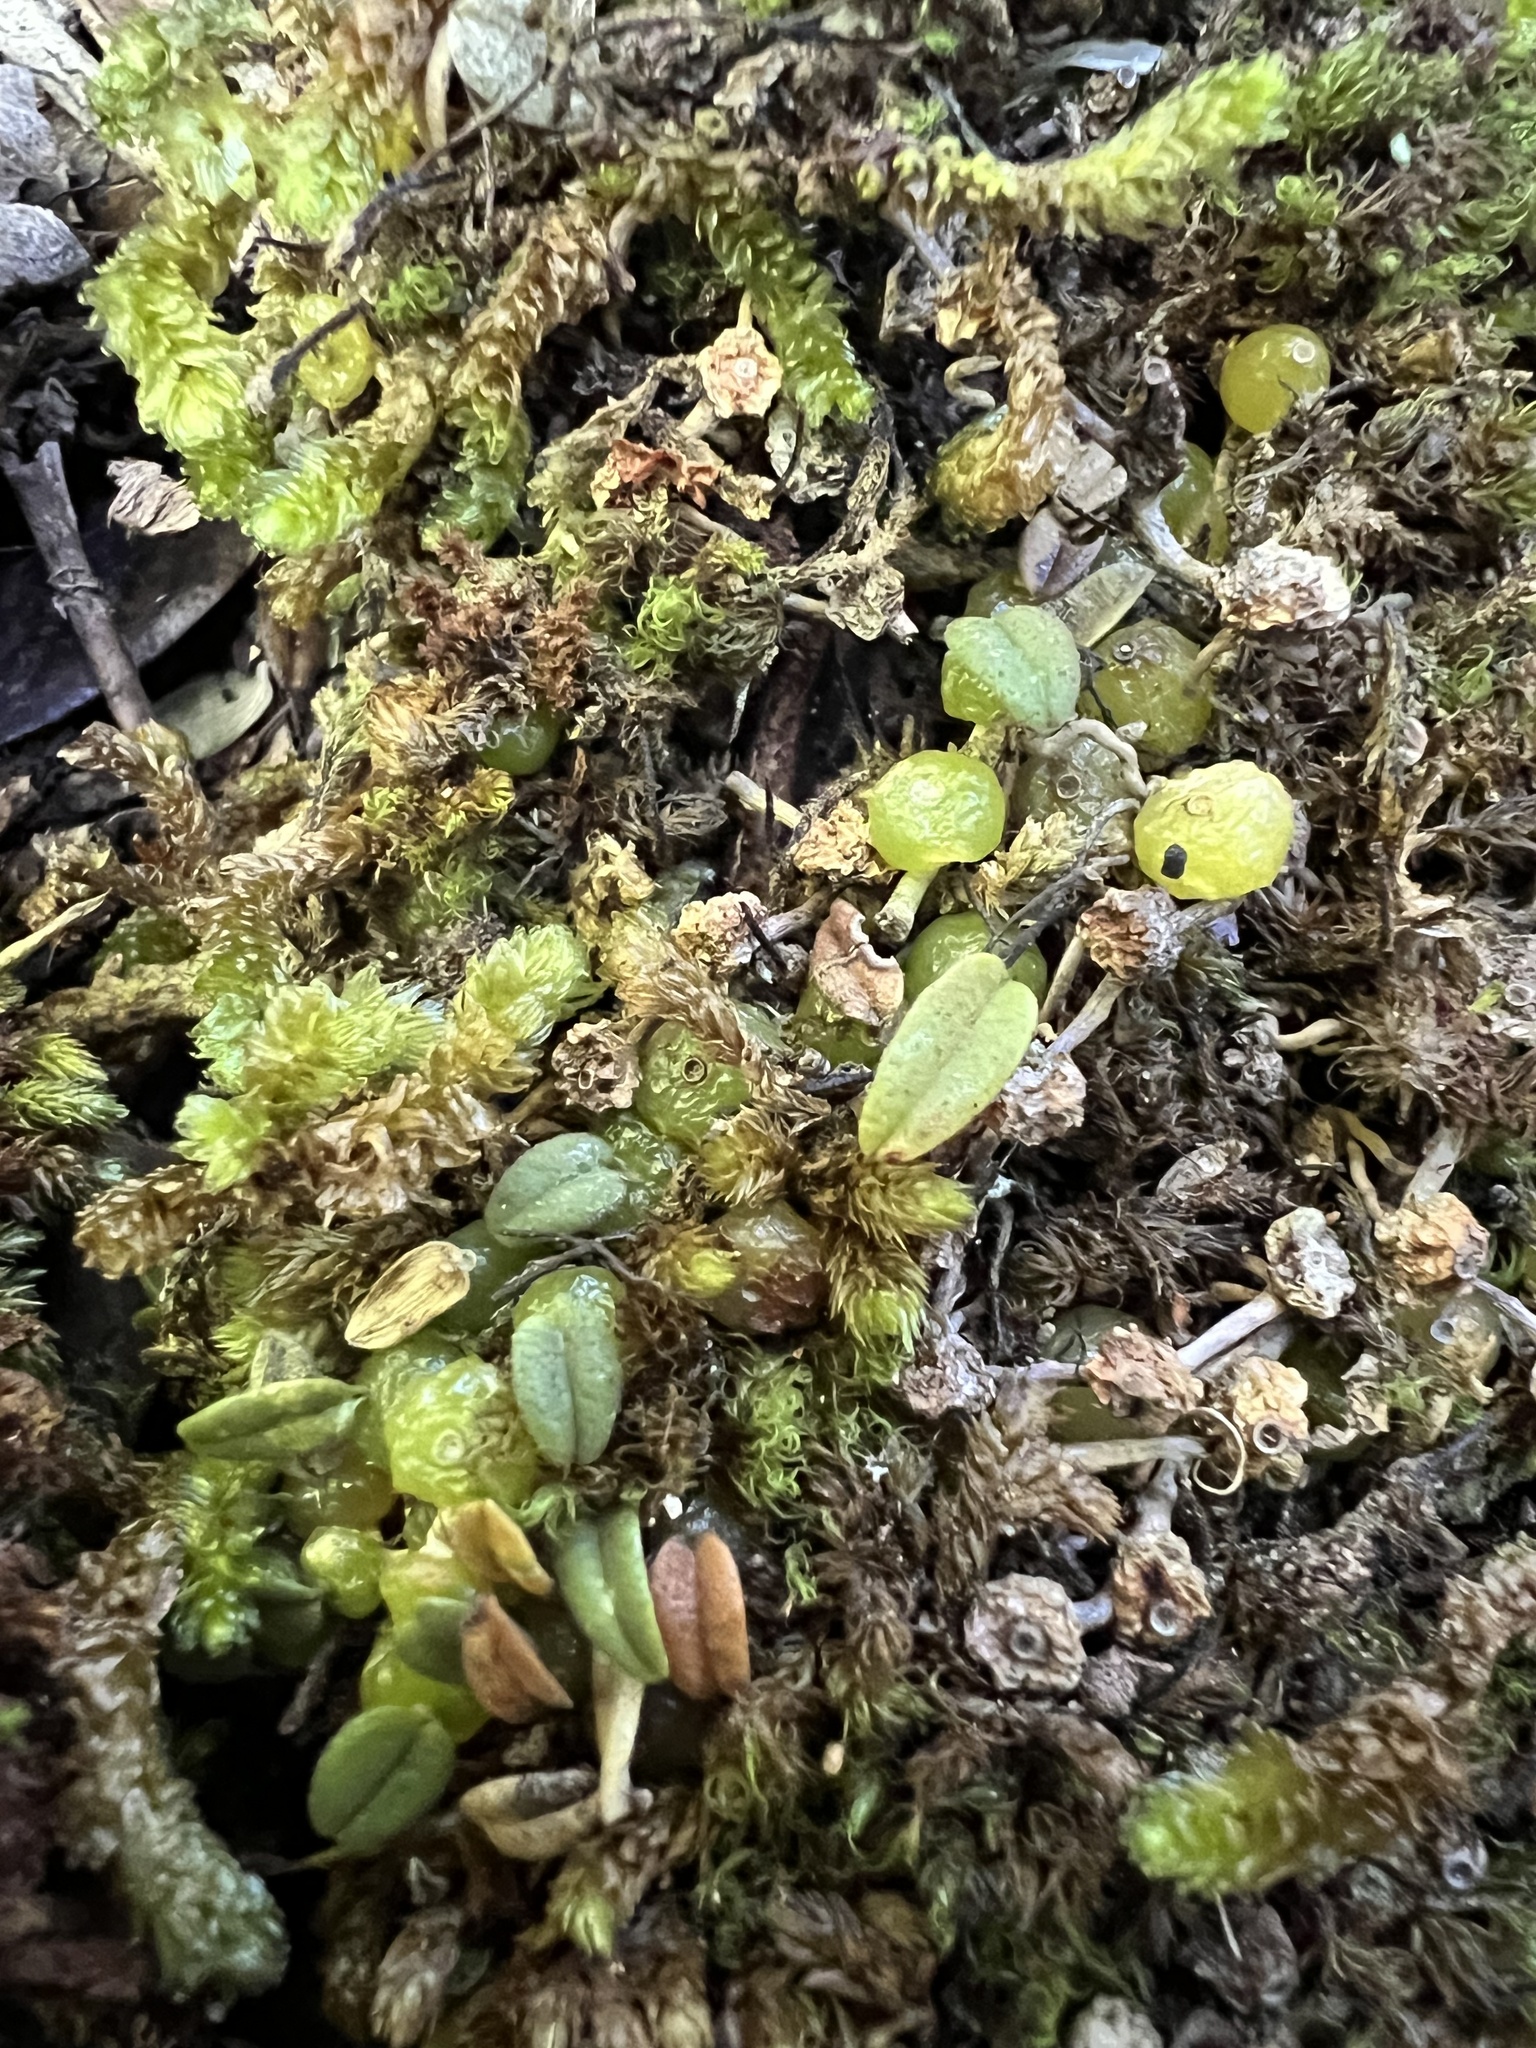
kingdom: Plantae
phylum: Tracheophyta
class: Liliopsida
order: Asparagales
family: Orchidaceae
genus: Bulbophyllum
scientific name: Bulbophyllum pygmaeum
